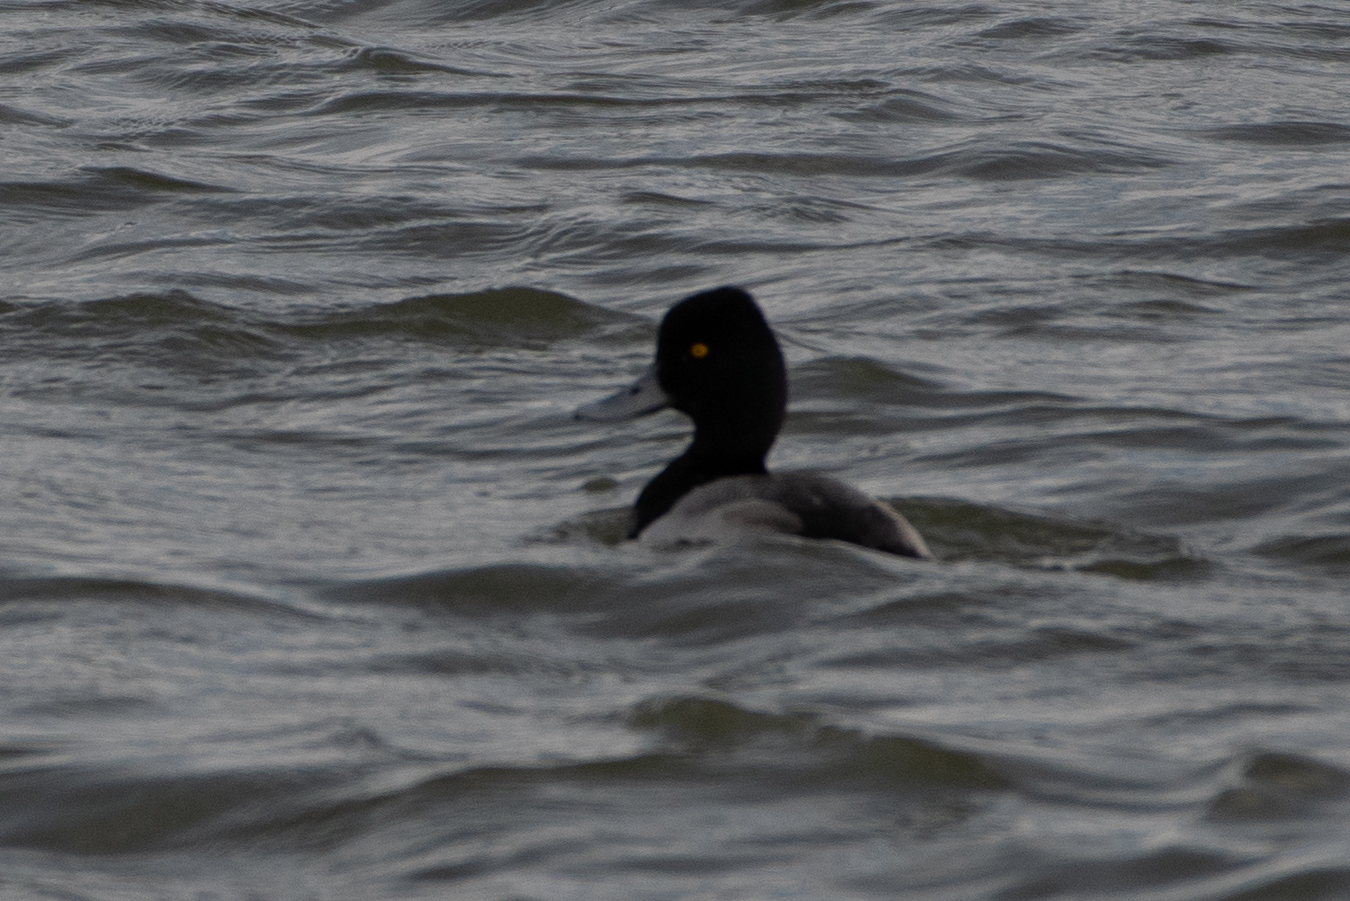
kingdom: Animalia
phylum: Chordata
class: Aves
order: Anseriformes
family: Anatidae
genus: Aythya
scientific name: Aythya affinis
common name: Lesser scaup
